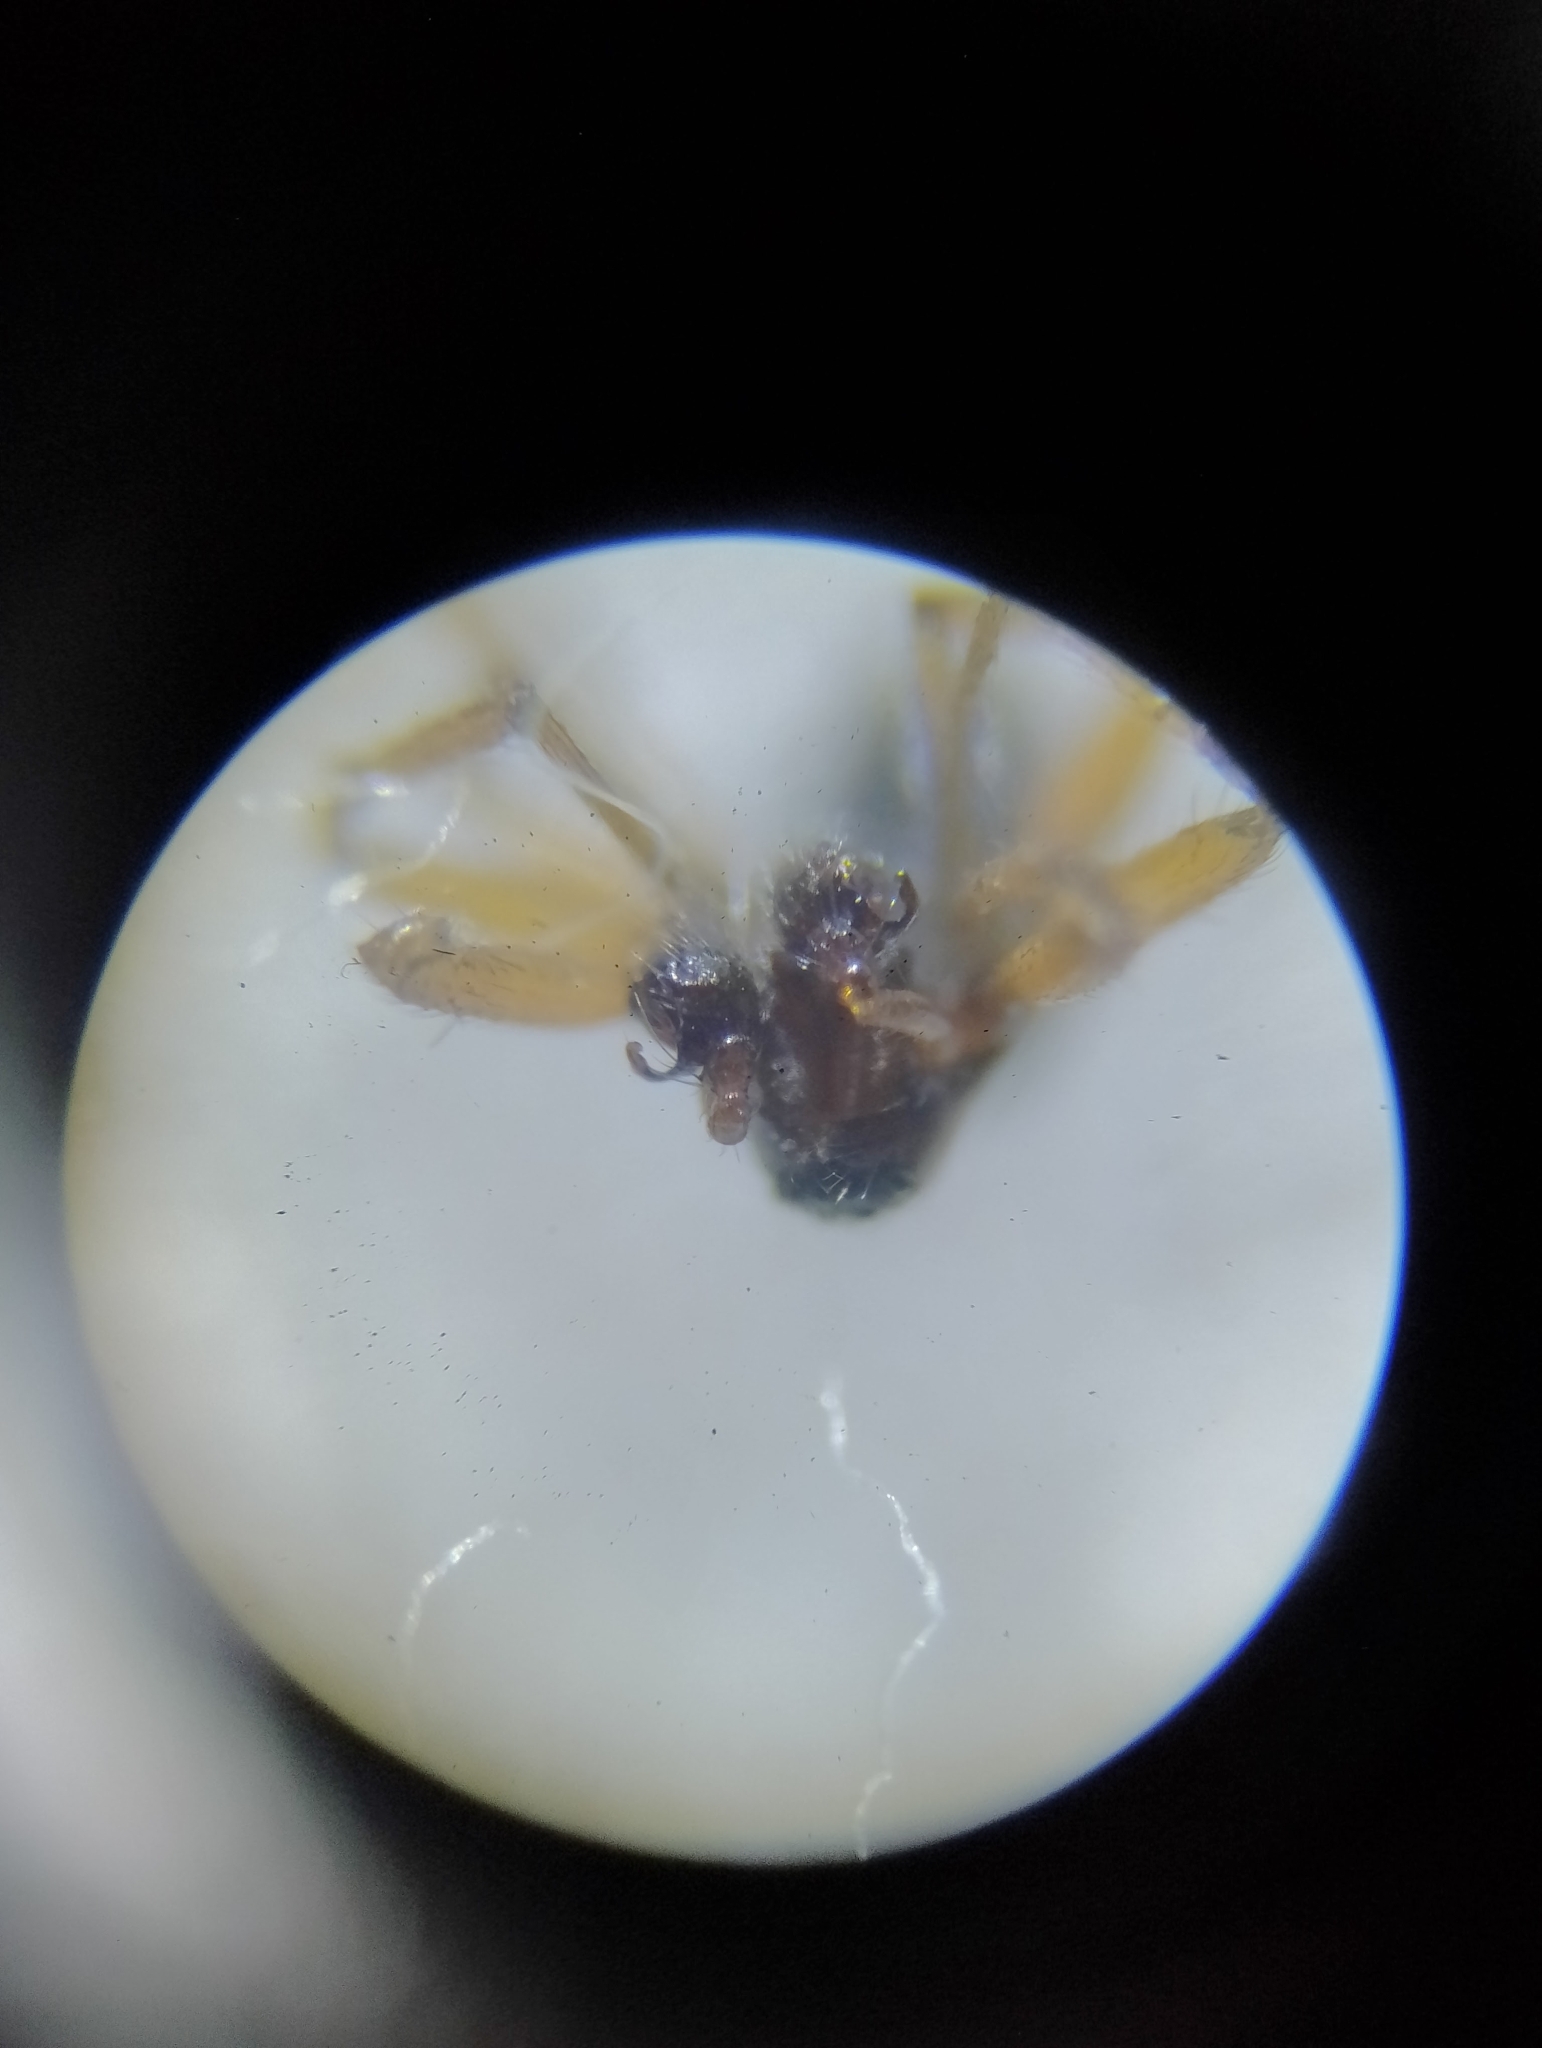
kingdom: Animalia
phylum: Arthropoda
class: Arachnida
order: Araneae
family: Linyphiidae
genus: Porrhomma
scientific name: Porrhomma microphthalmum
